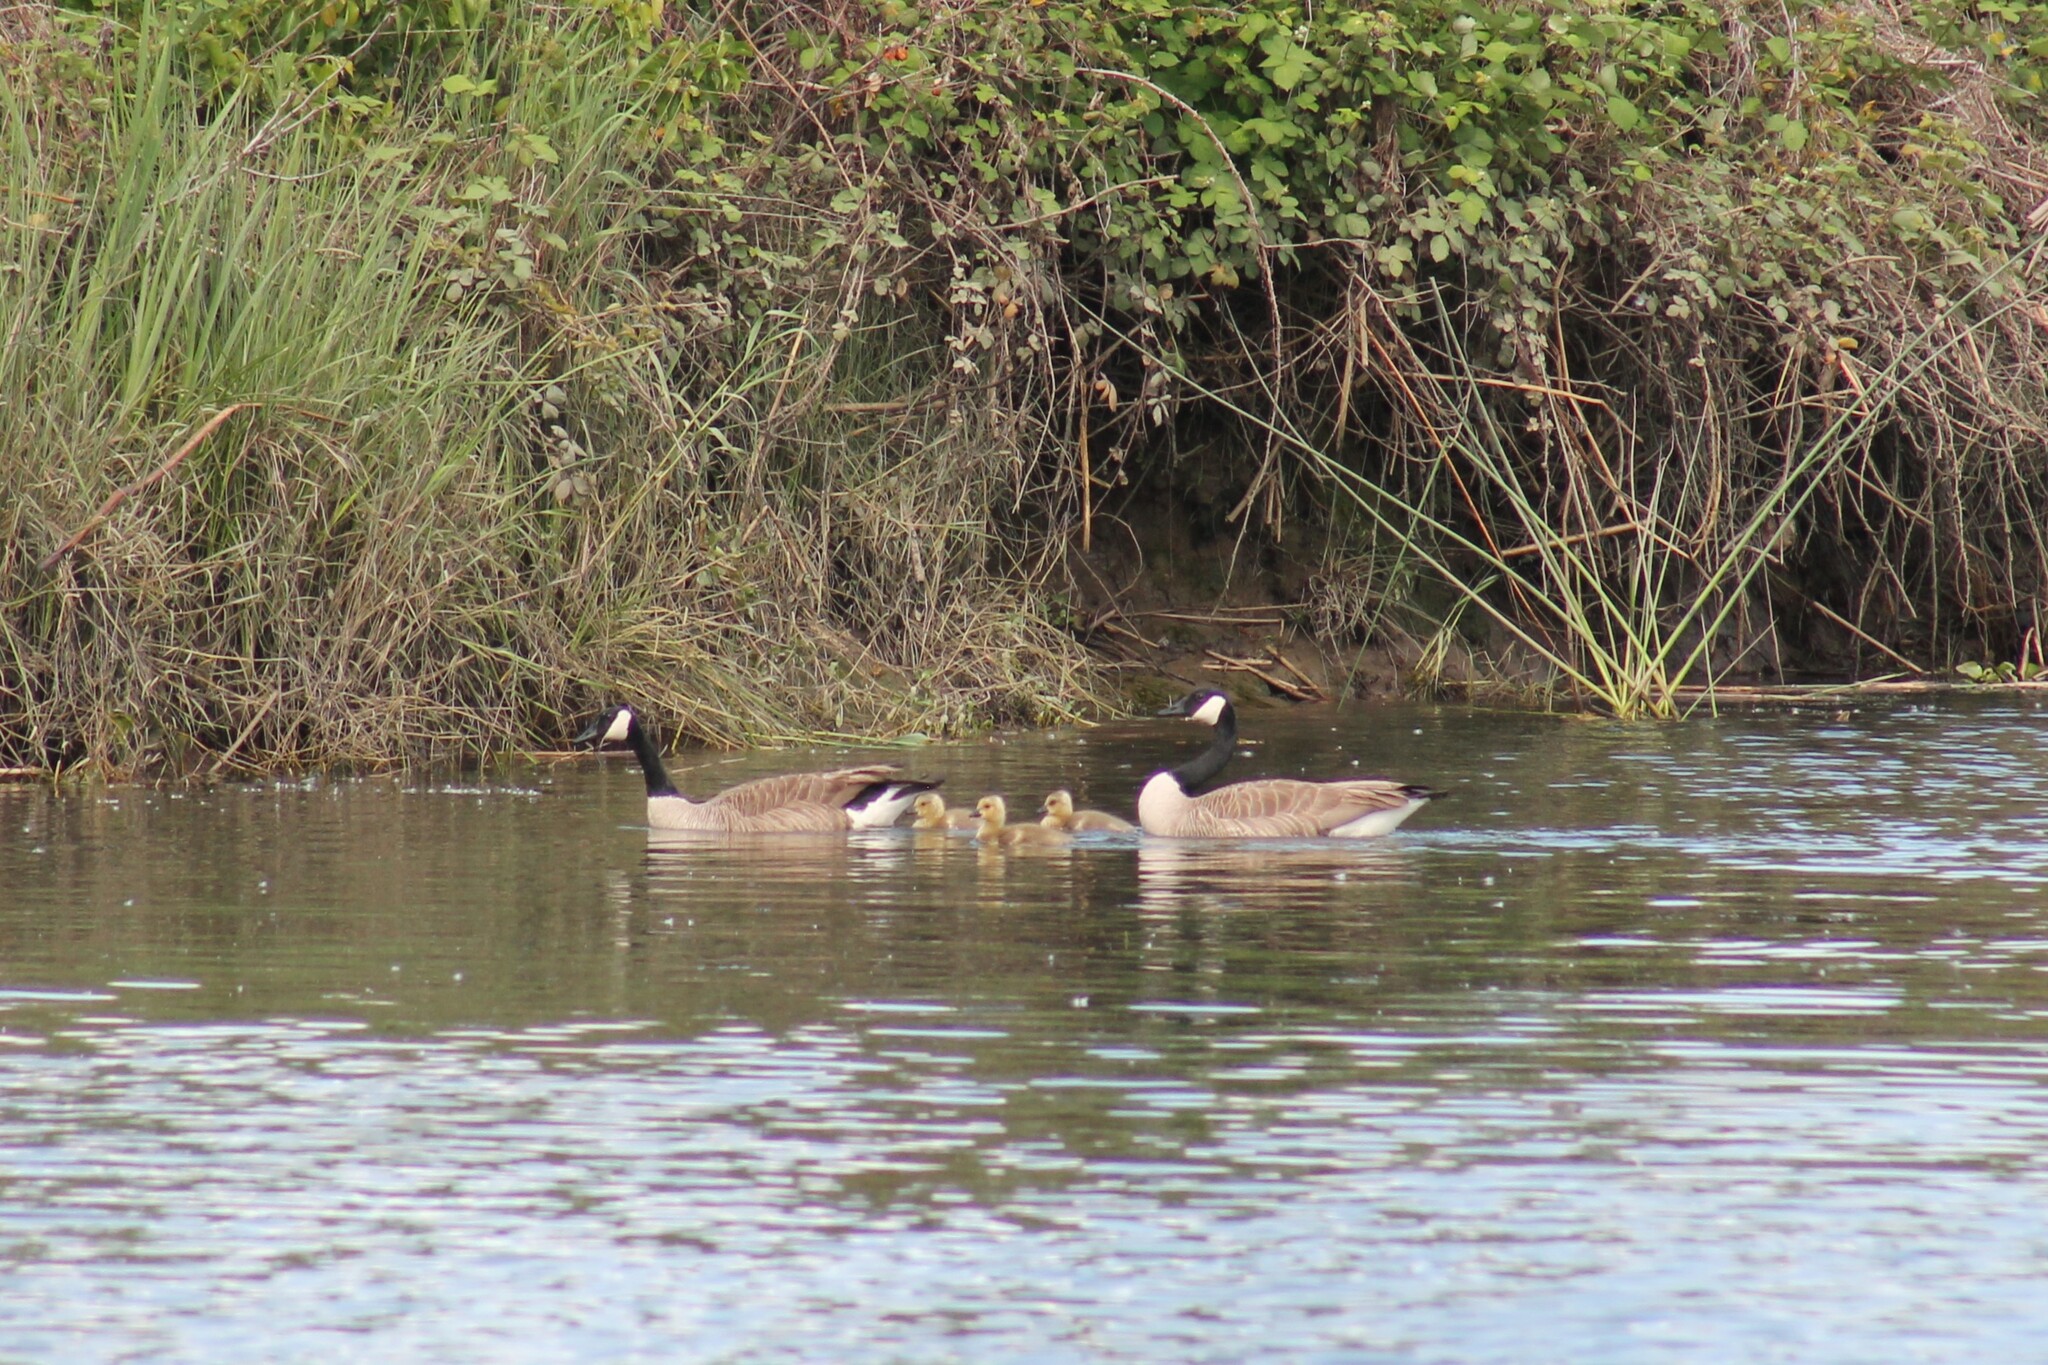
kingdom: Animalia
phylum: Chordata
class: Aves
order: Anseriformes
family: Anatidae
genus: Branta
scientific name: Branta canadensis
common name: Canada goose
